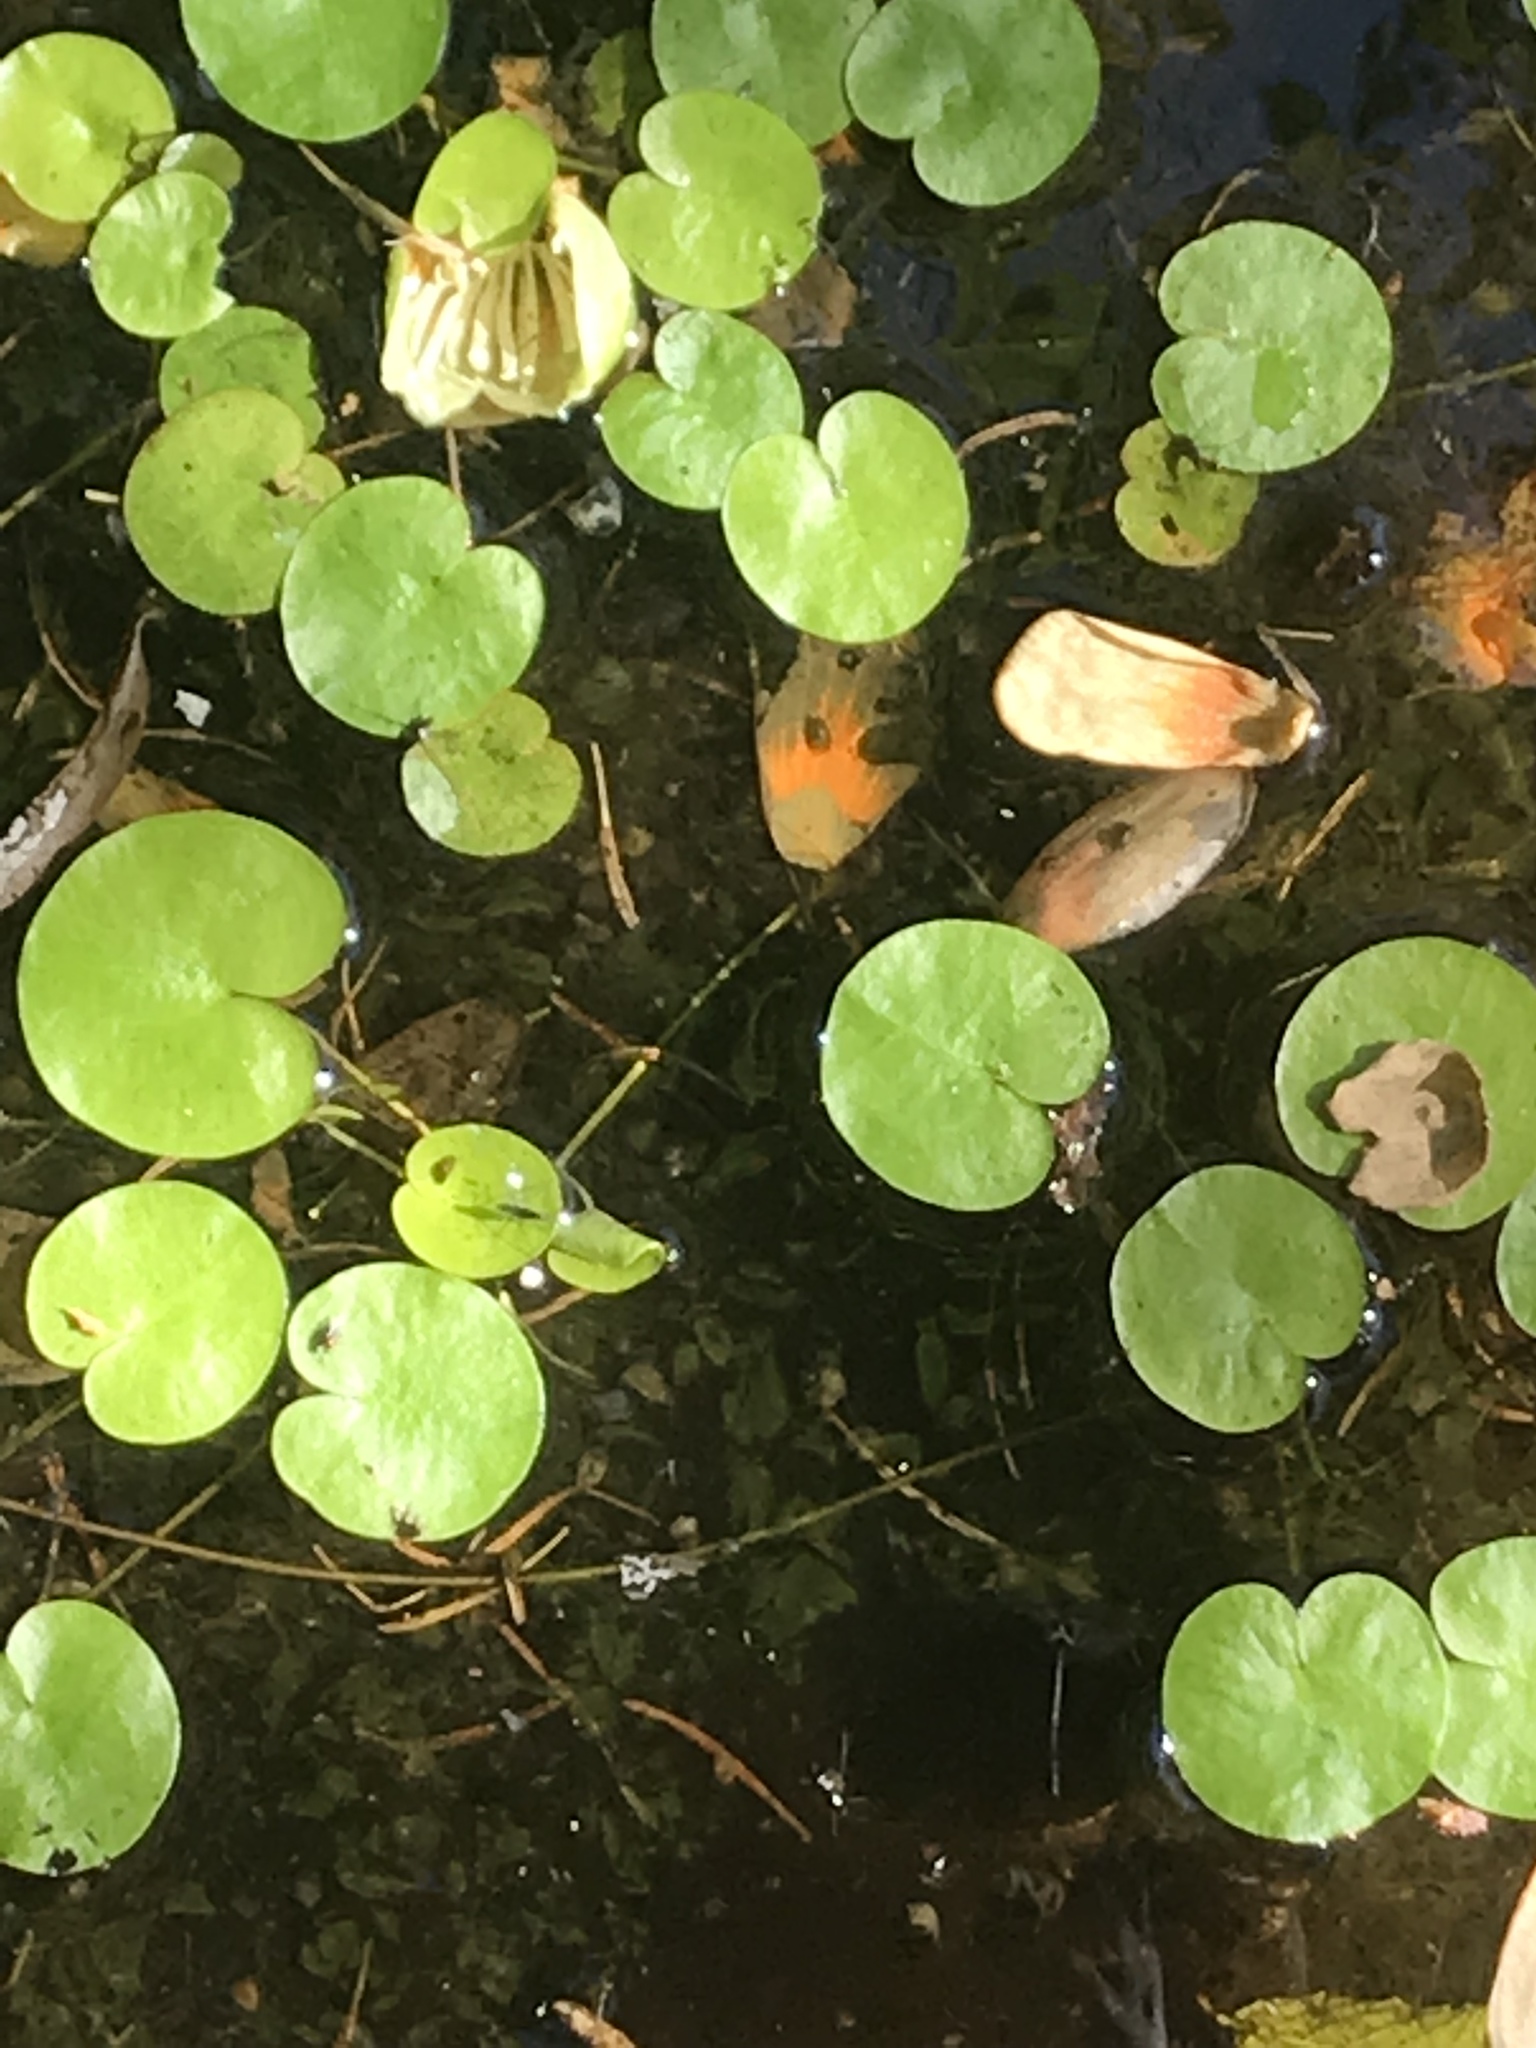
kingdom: Plantae
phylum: Tracheophyta
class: Liliopsida
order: Alismatales
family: Hydrocharitaceae
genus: Hydrocharis
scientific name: Hydrocharis morsus-ranae
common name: Frogbit
